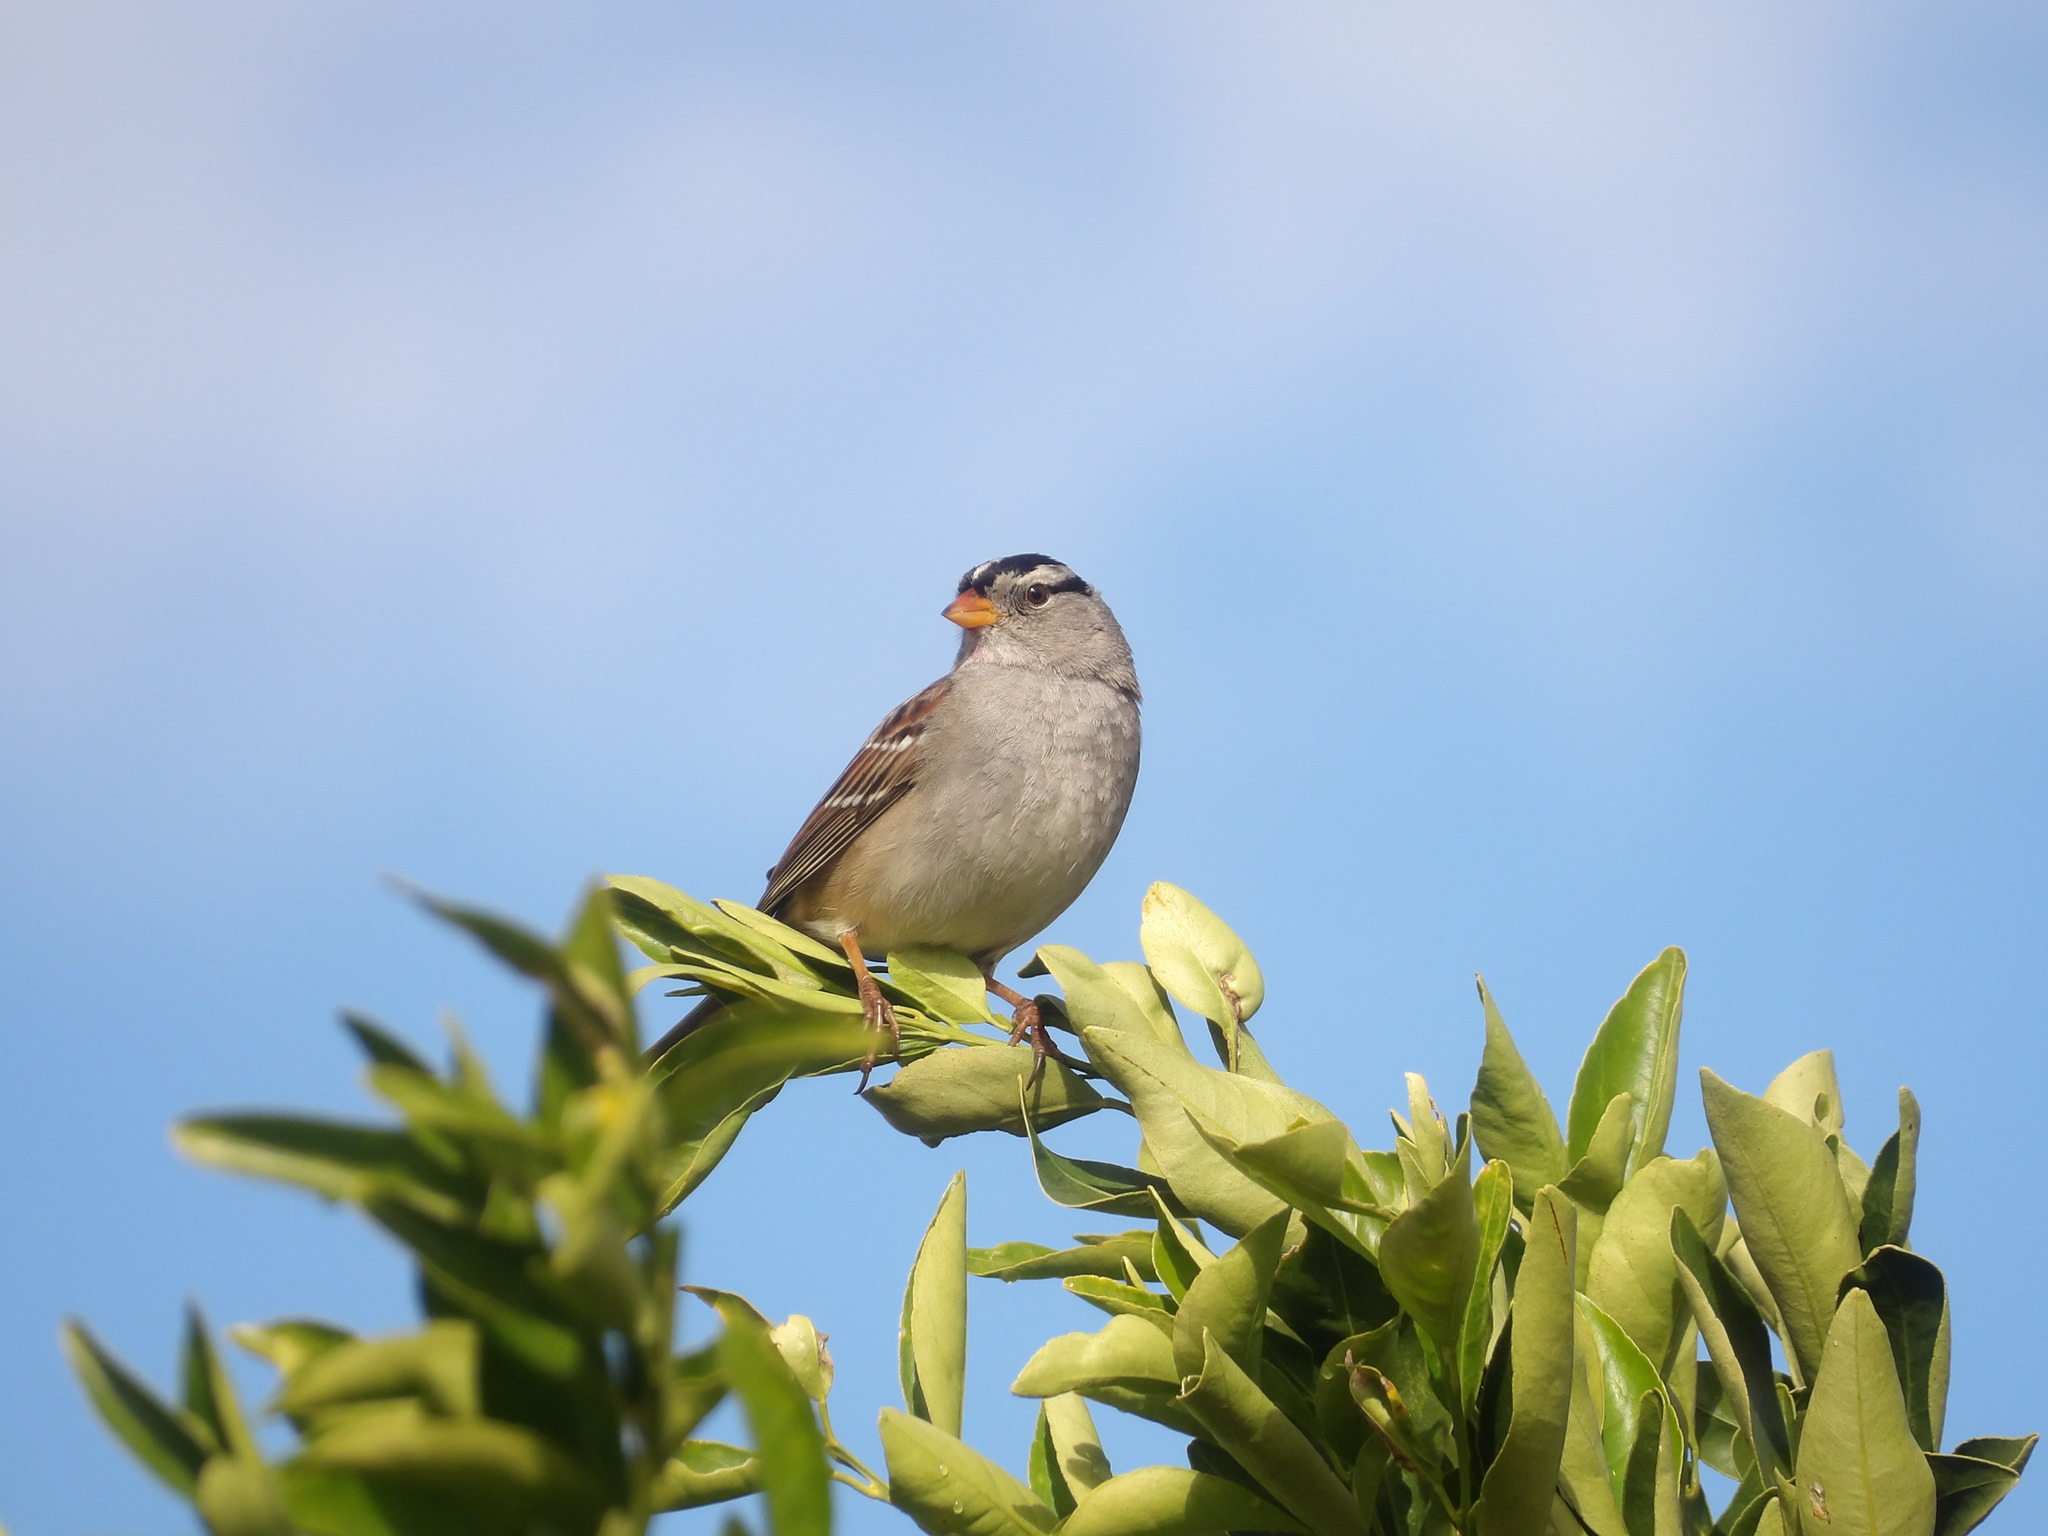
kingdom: Animalia
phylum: Chordata
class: Aves
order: Passeriformes
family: Passerellidae
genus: Zonotrichia
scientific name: Zonotrichia leucophrys
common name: White-crowned sparrow
